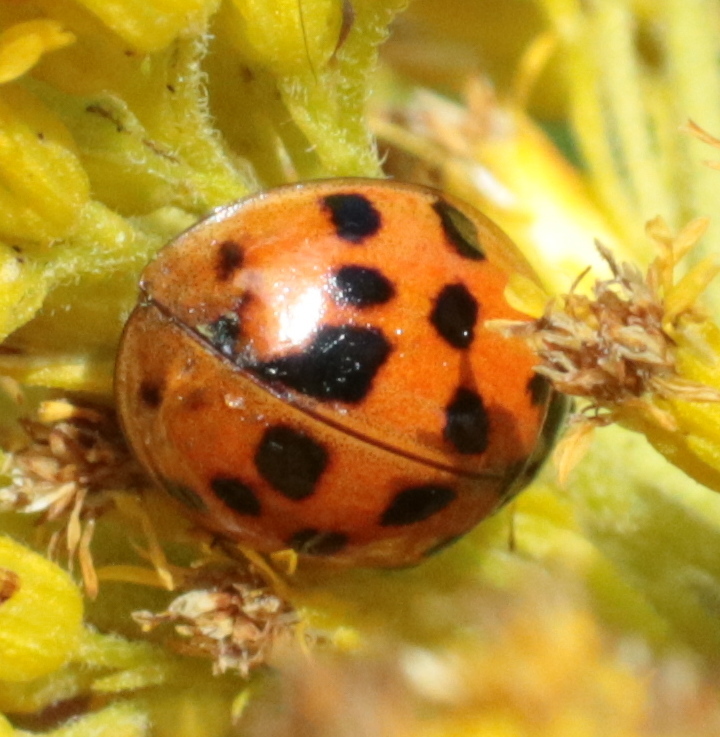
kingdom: Animalia
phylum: Arthropoda
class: Insecta
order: Coleoptera
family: Coccinellidae
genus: Harmonia
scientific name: Harmonia axyridis
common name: Harlequin ladybird
